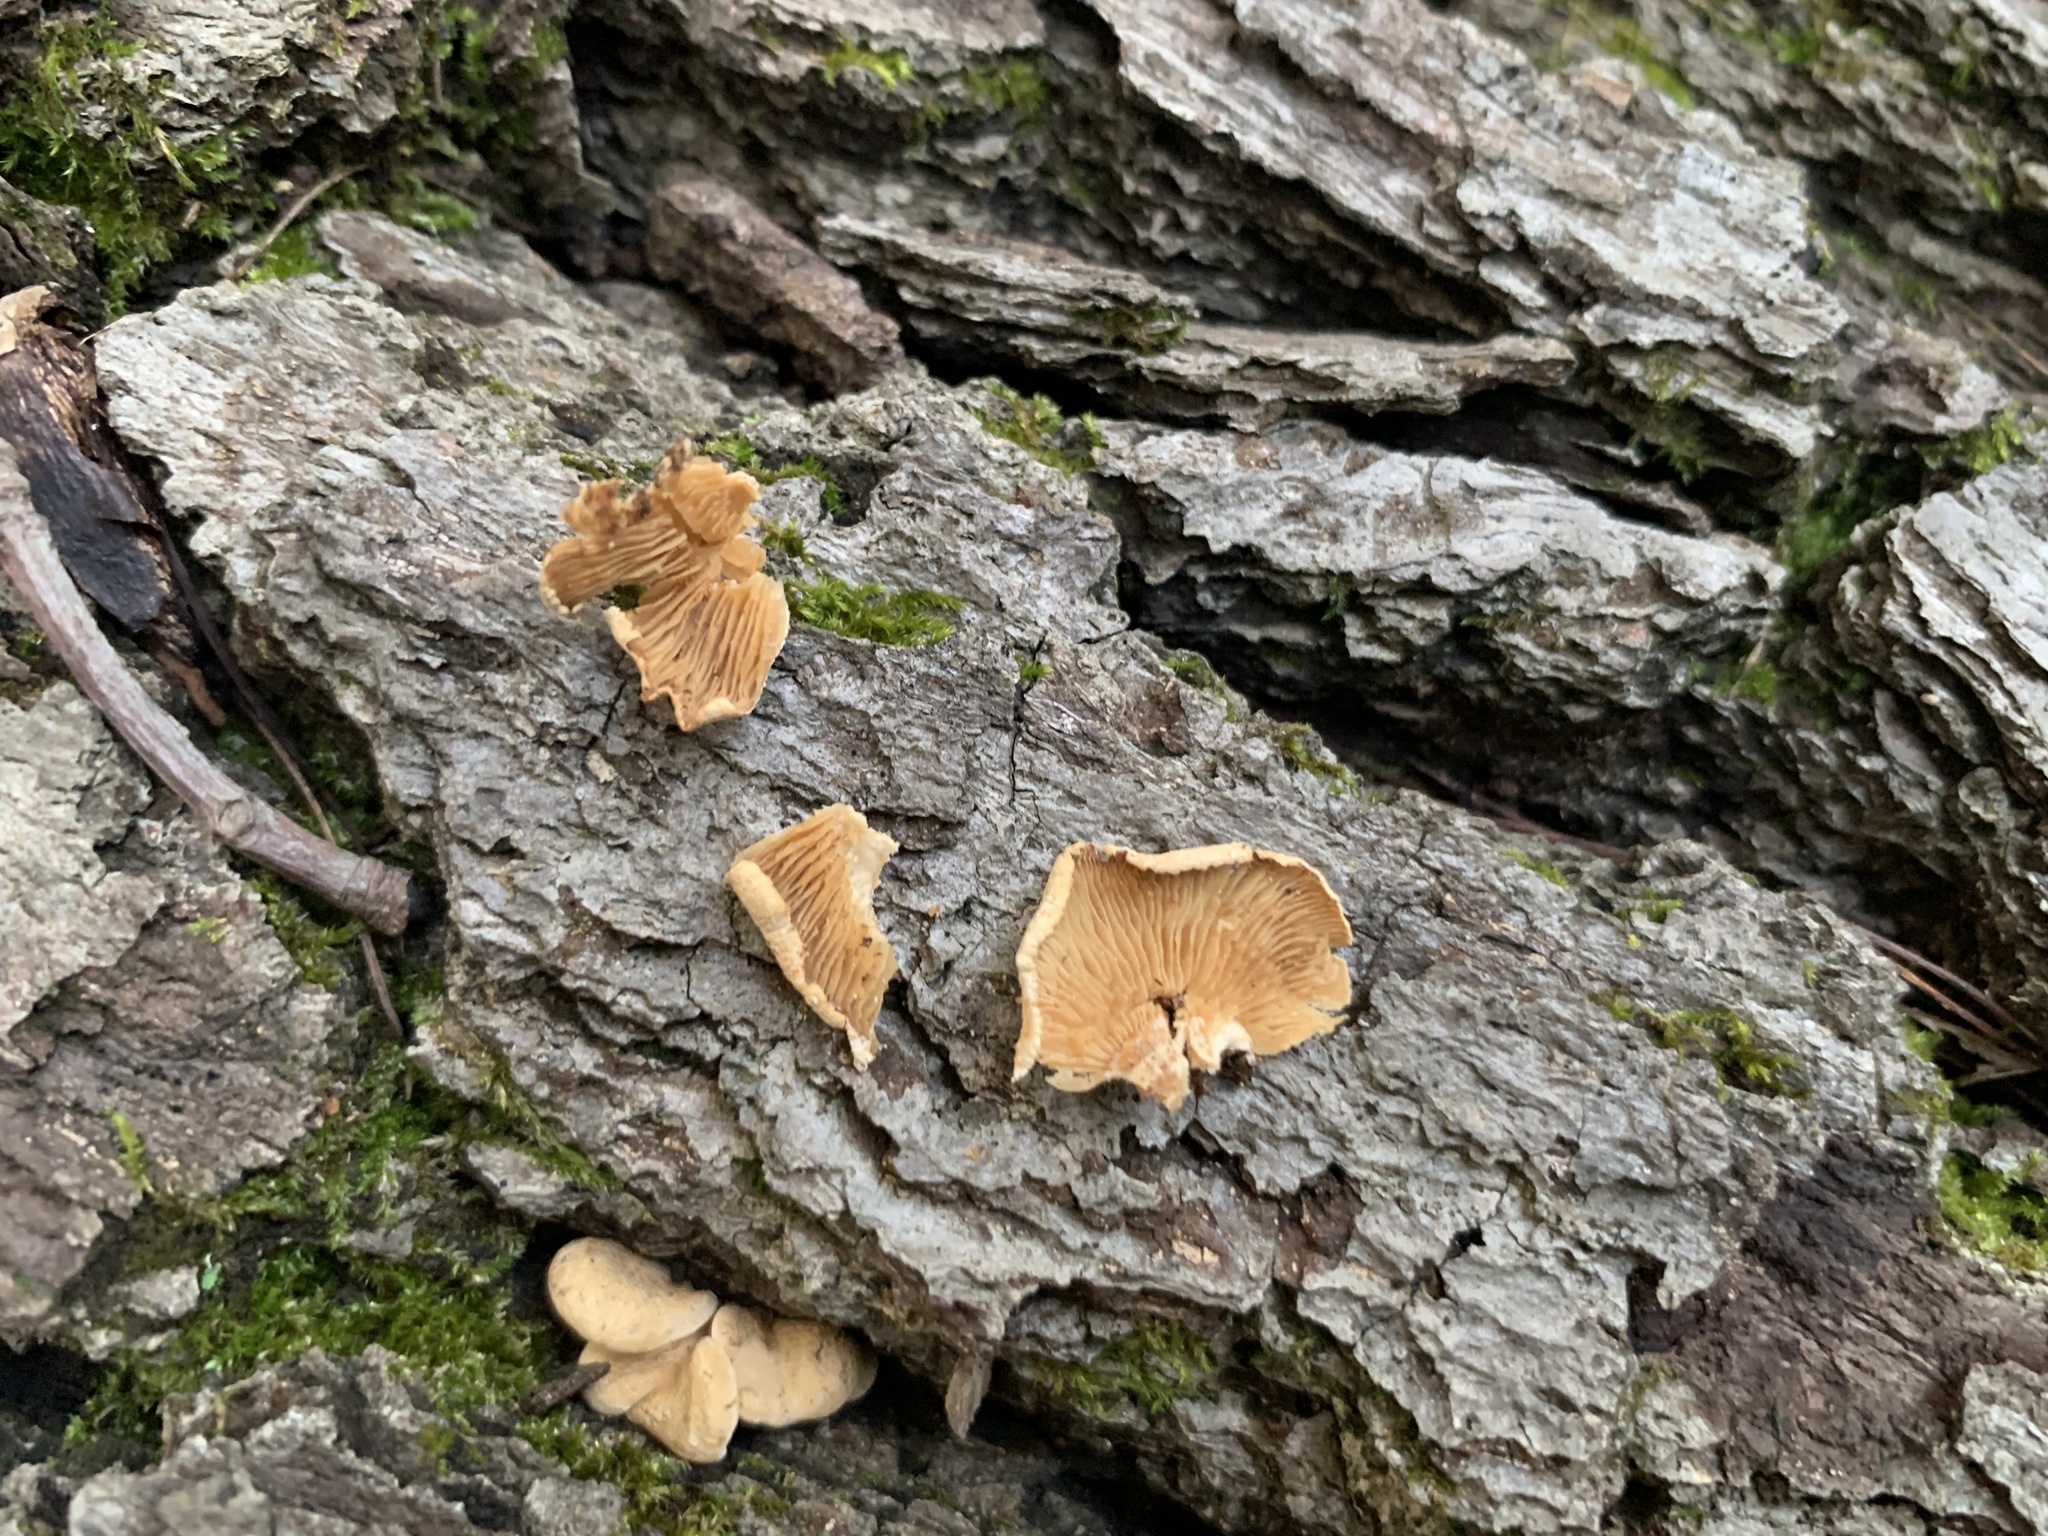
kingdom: Fungi
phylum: Basidiomycota
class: Agaricomycetes
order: Agaricales
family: Mycenaceae
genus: Panellus
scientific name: Panellus stipticus
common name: Bitter oysterling
